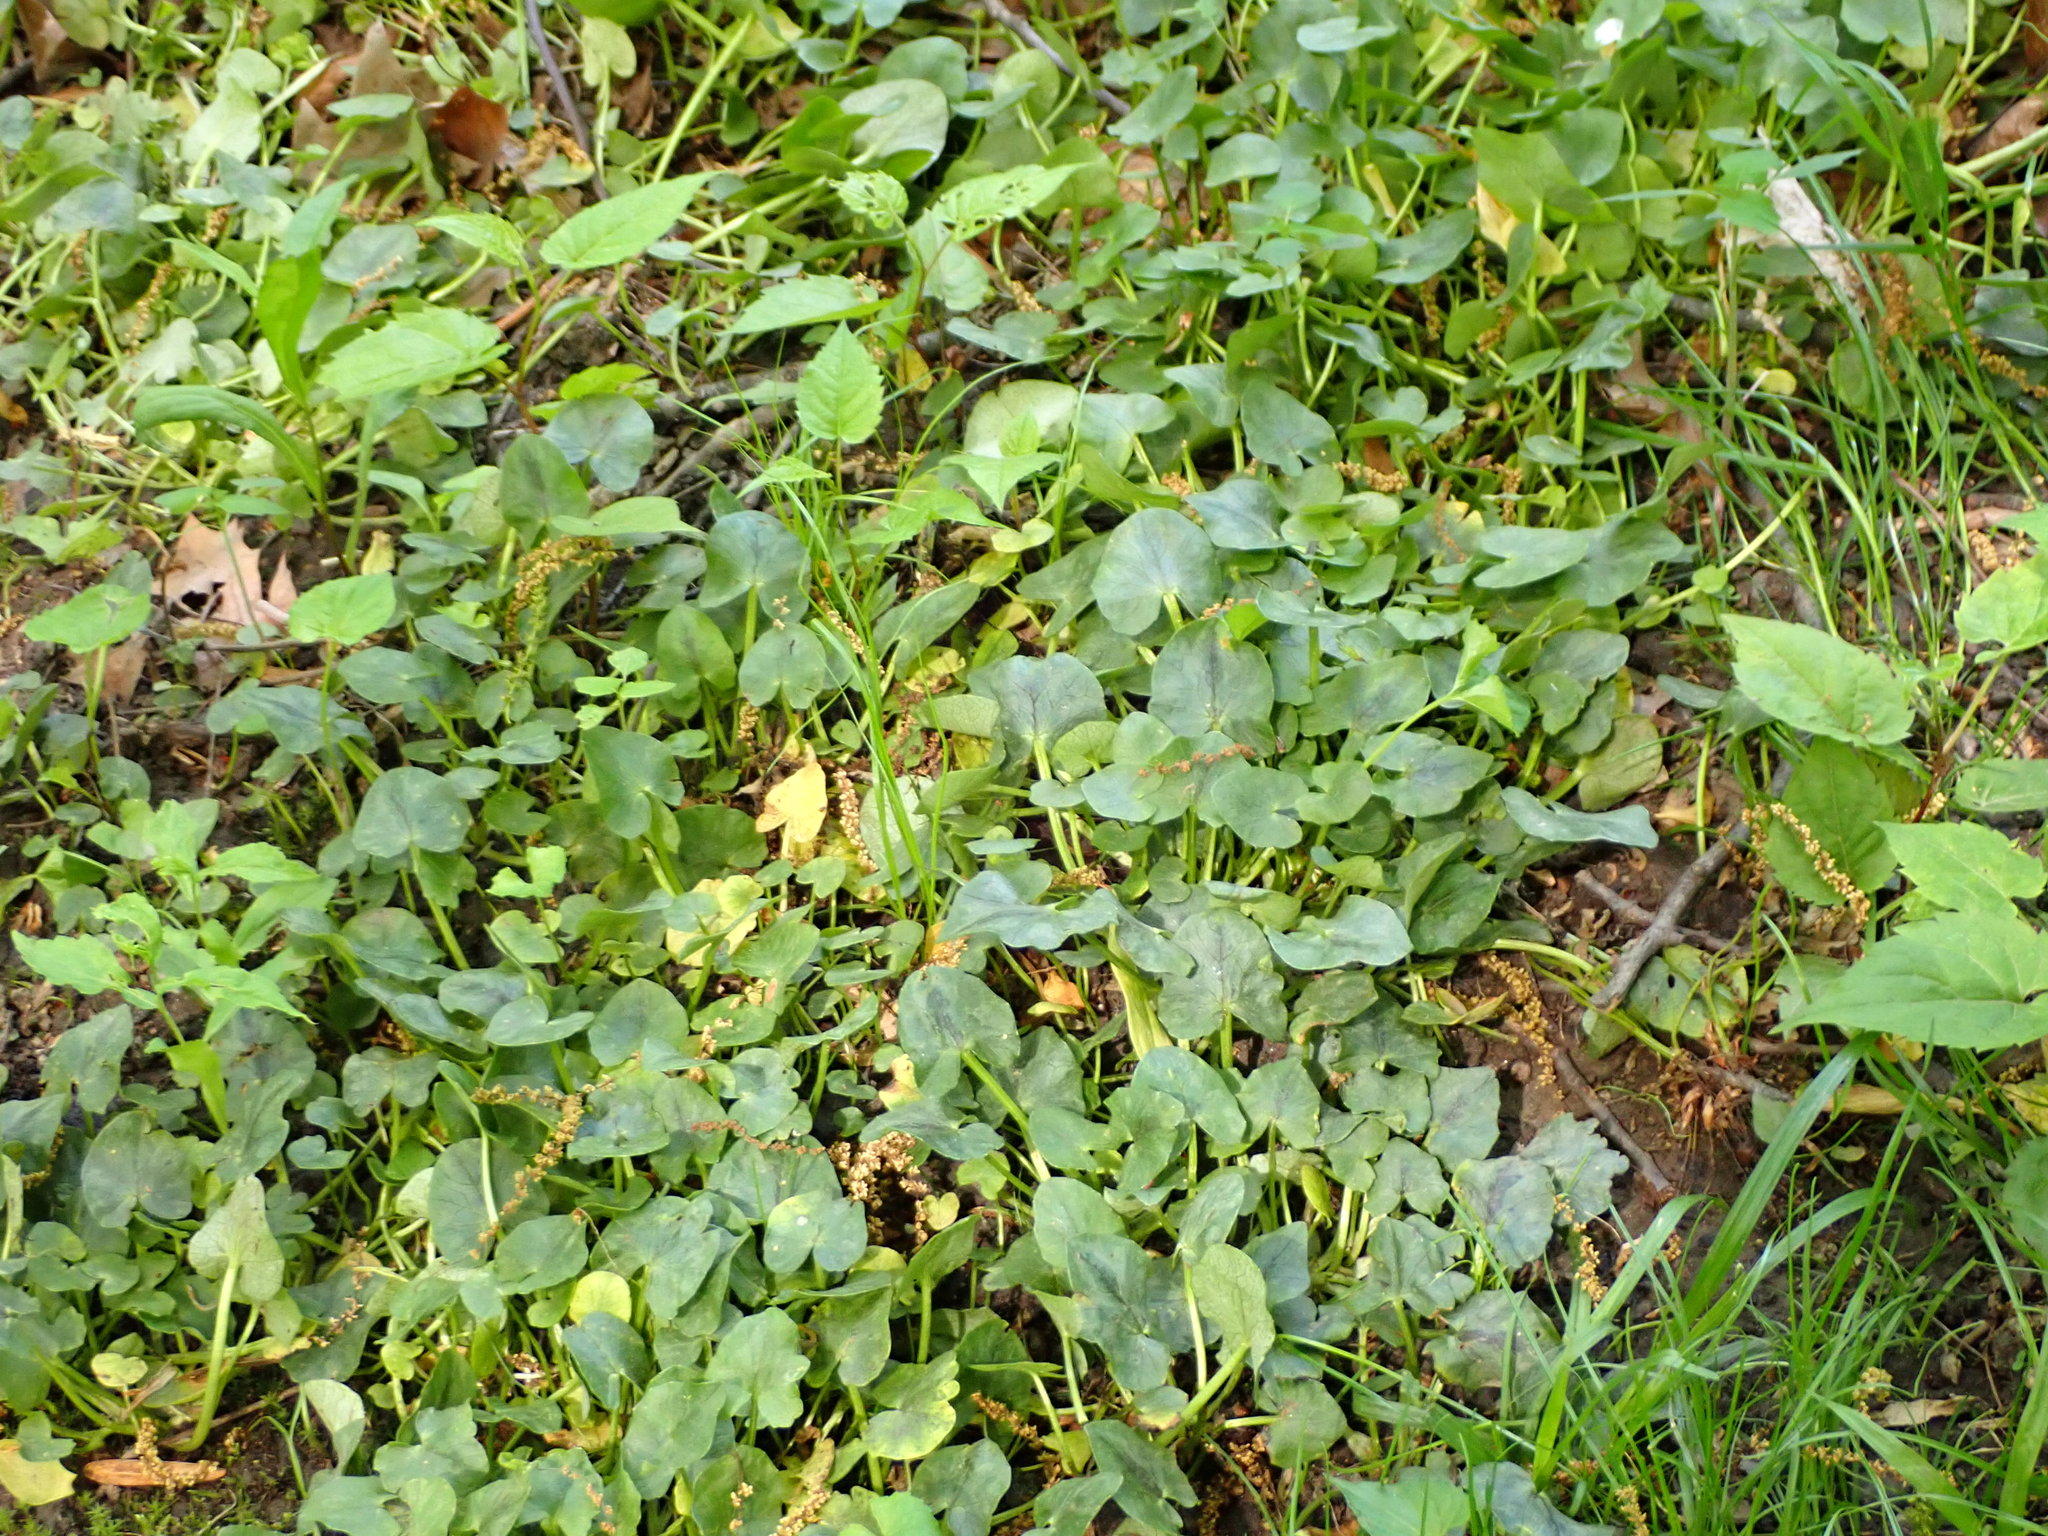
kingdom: Plantae
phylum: Tracheophyta
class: Magnoliopsida
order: Ranunculales
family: Ranunculaceae
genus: Ficaria
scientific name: Ficaria verna
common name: Lesser celandine
